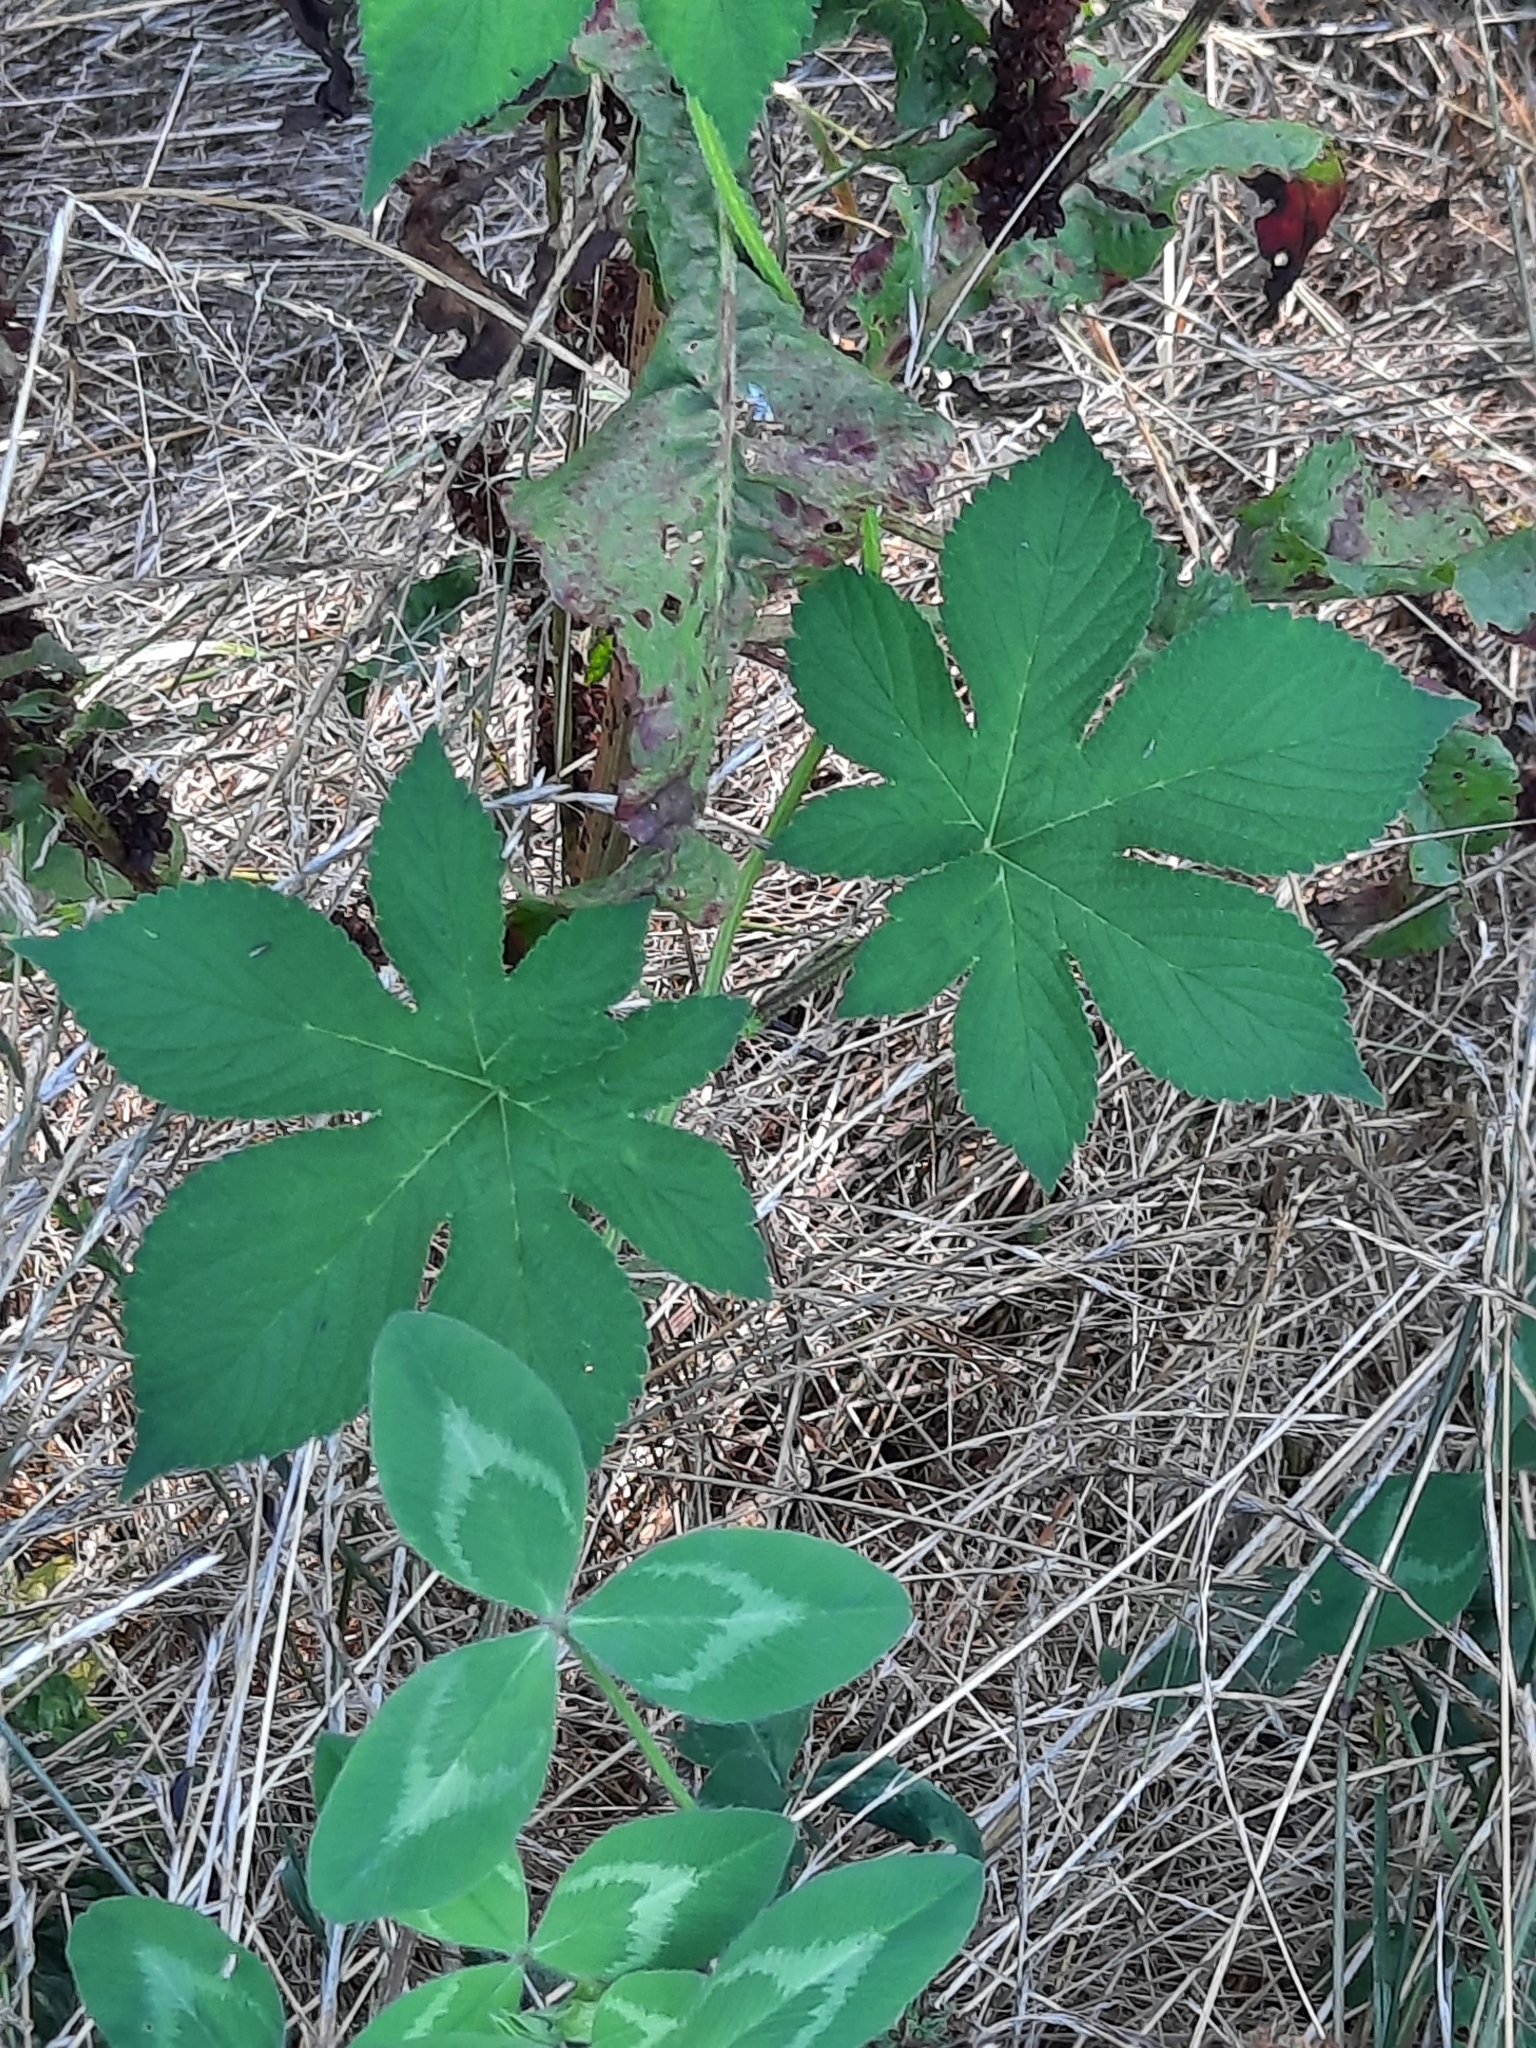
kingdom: Plantae
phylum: Tracheophyta
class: Magnoliopsida
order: Rosales
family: Cannabaceae
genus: Humulus
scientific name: Humulus scandens
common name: Japanese hop
